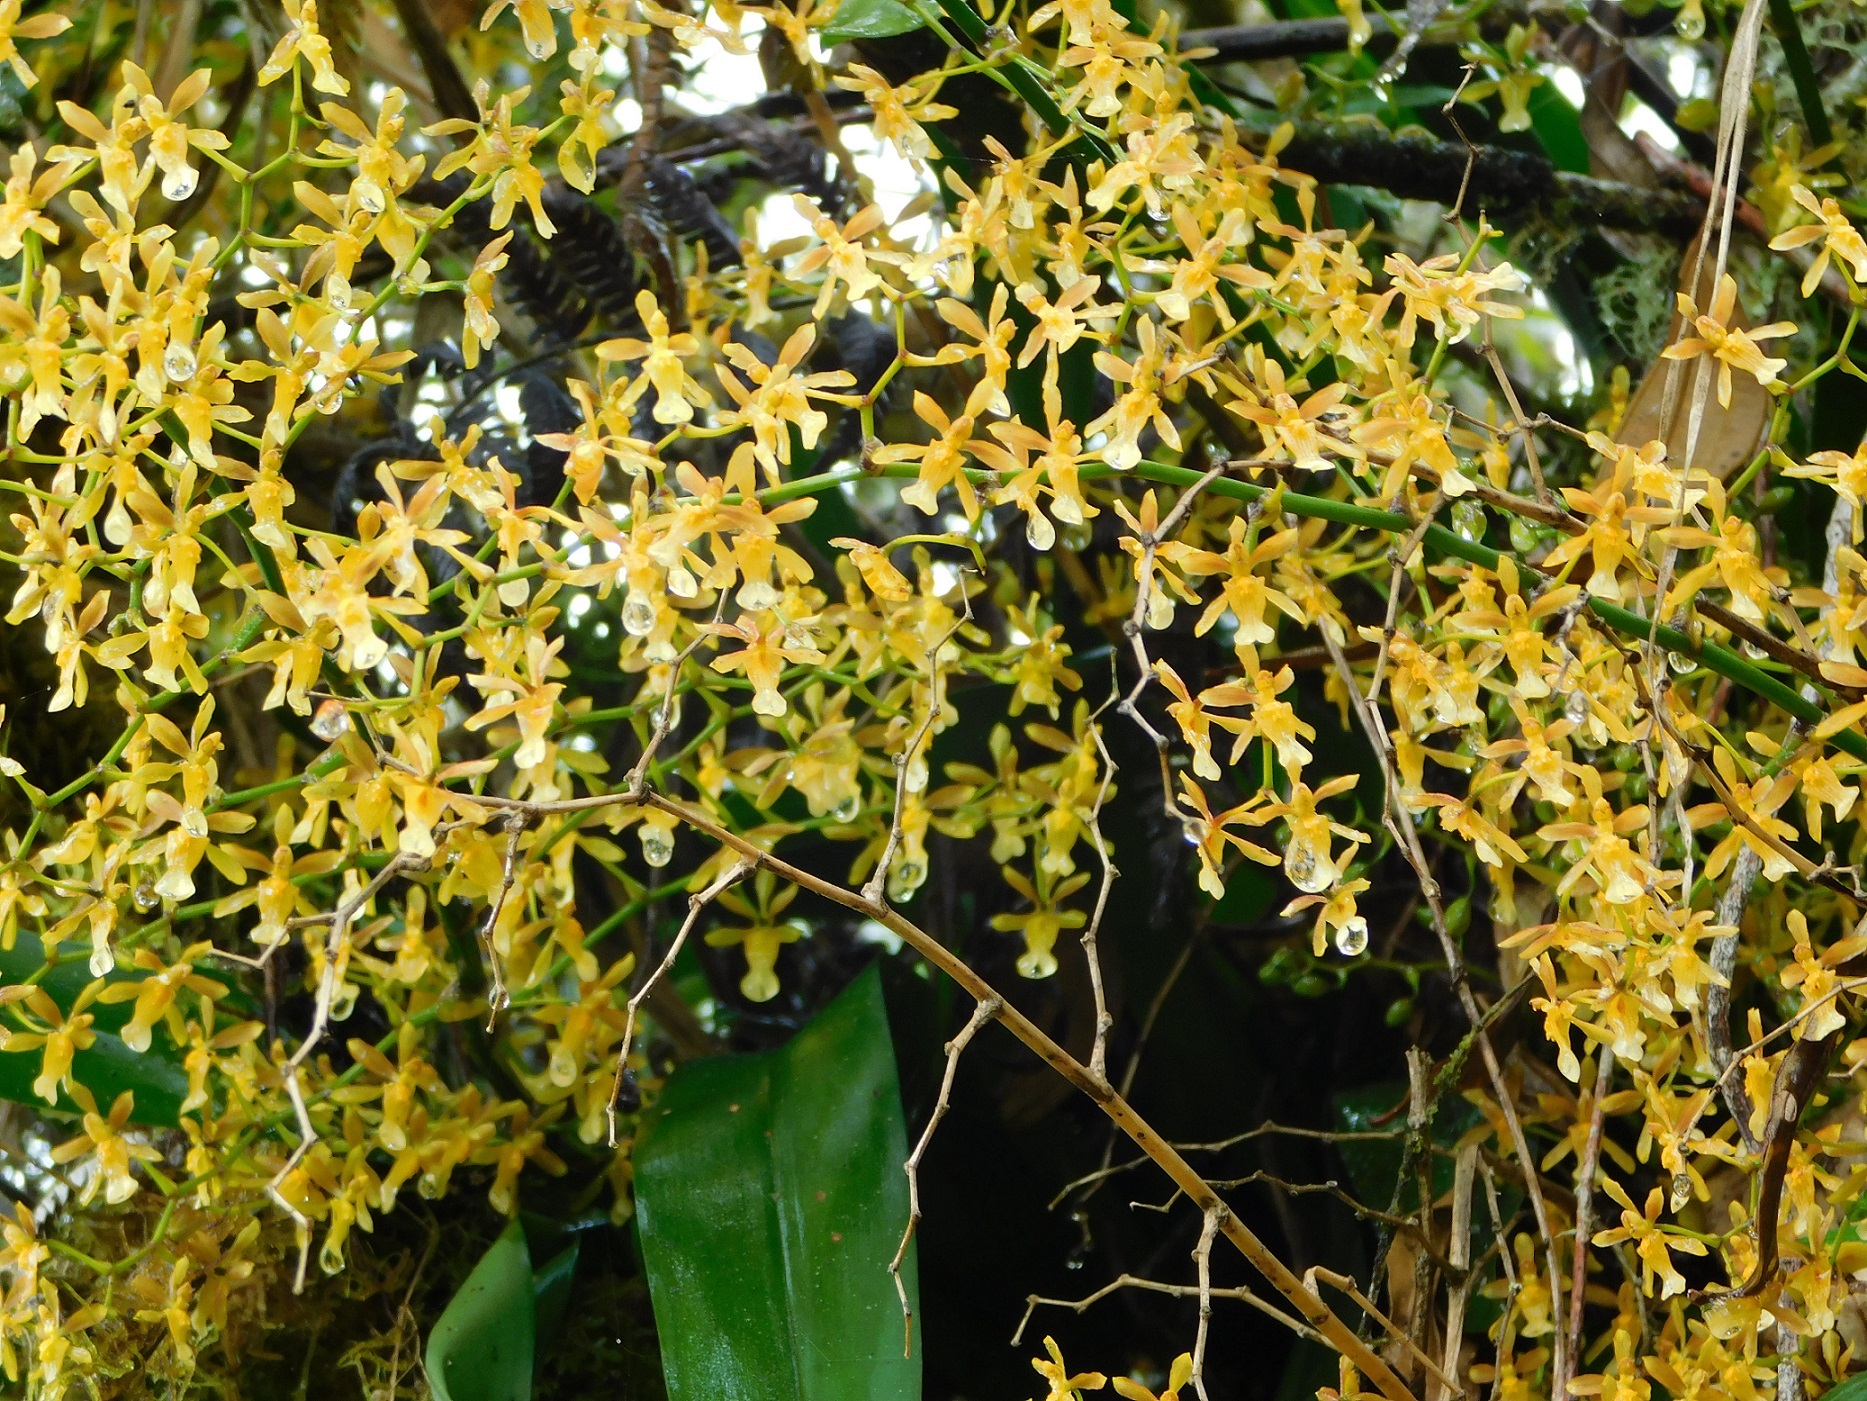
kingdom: Plantae
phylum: Tracheophyta
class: Liliopsida
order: Asparagales
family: Orchidaceae
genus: Oncidium
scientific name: Oncidium chrysomorphum
